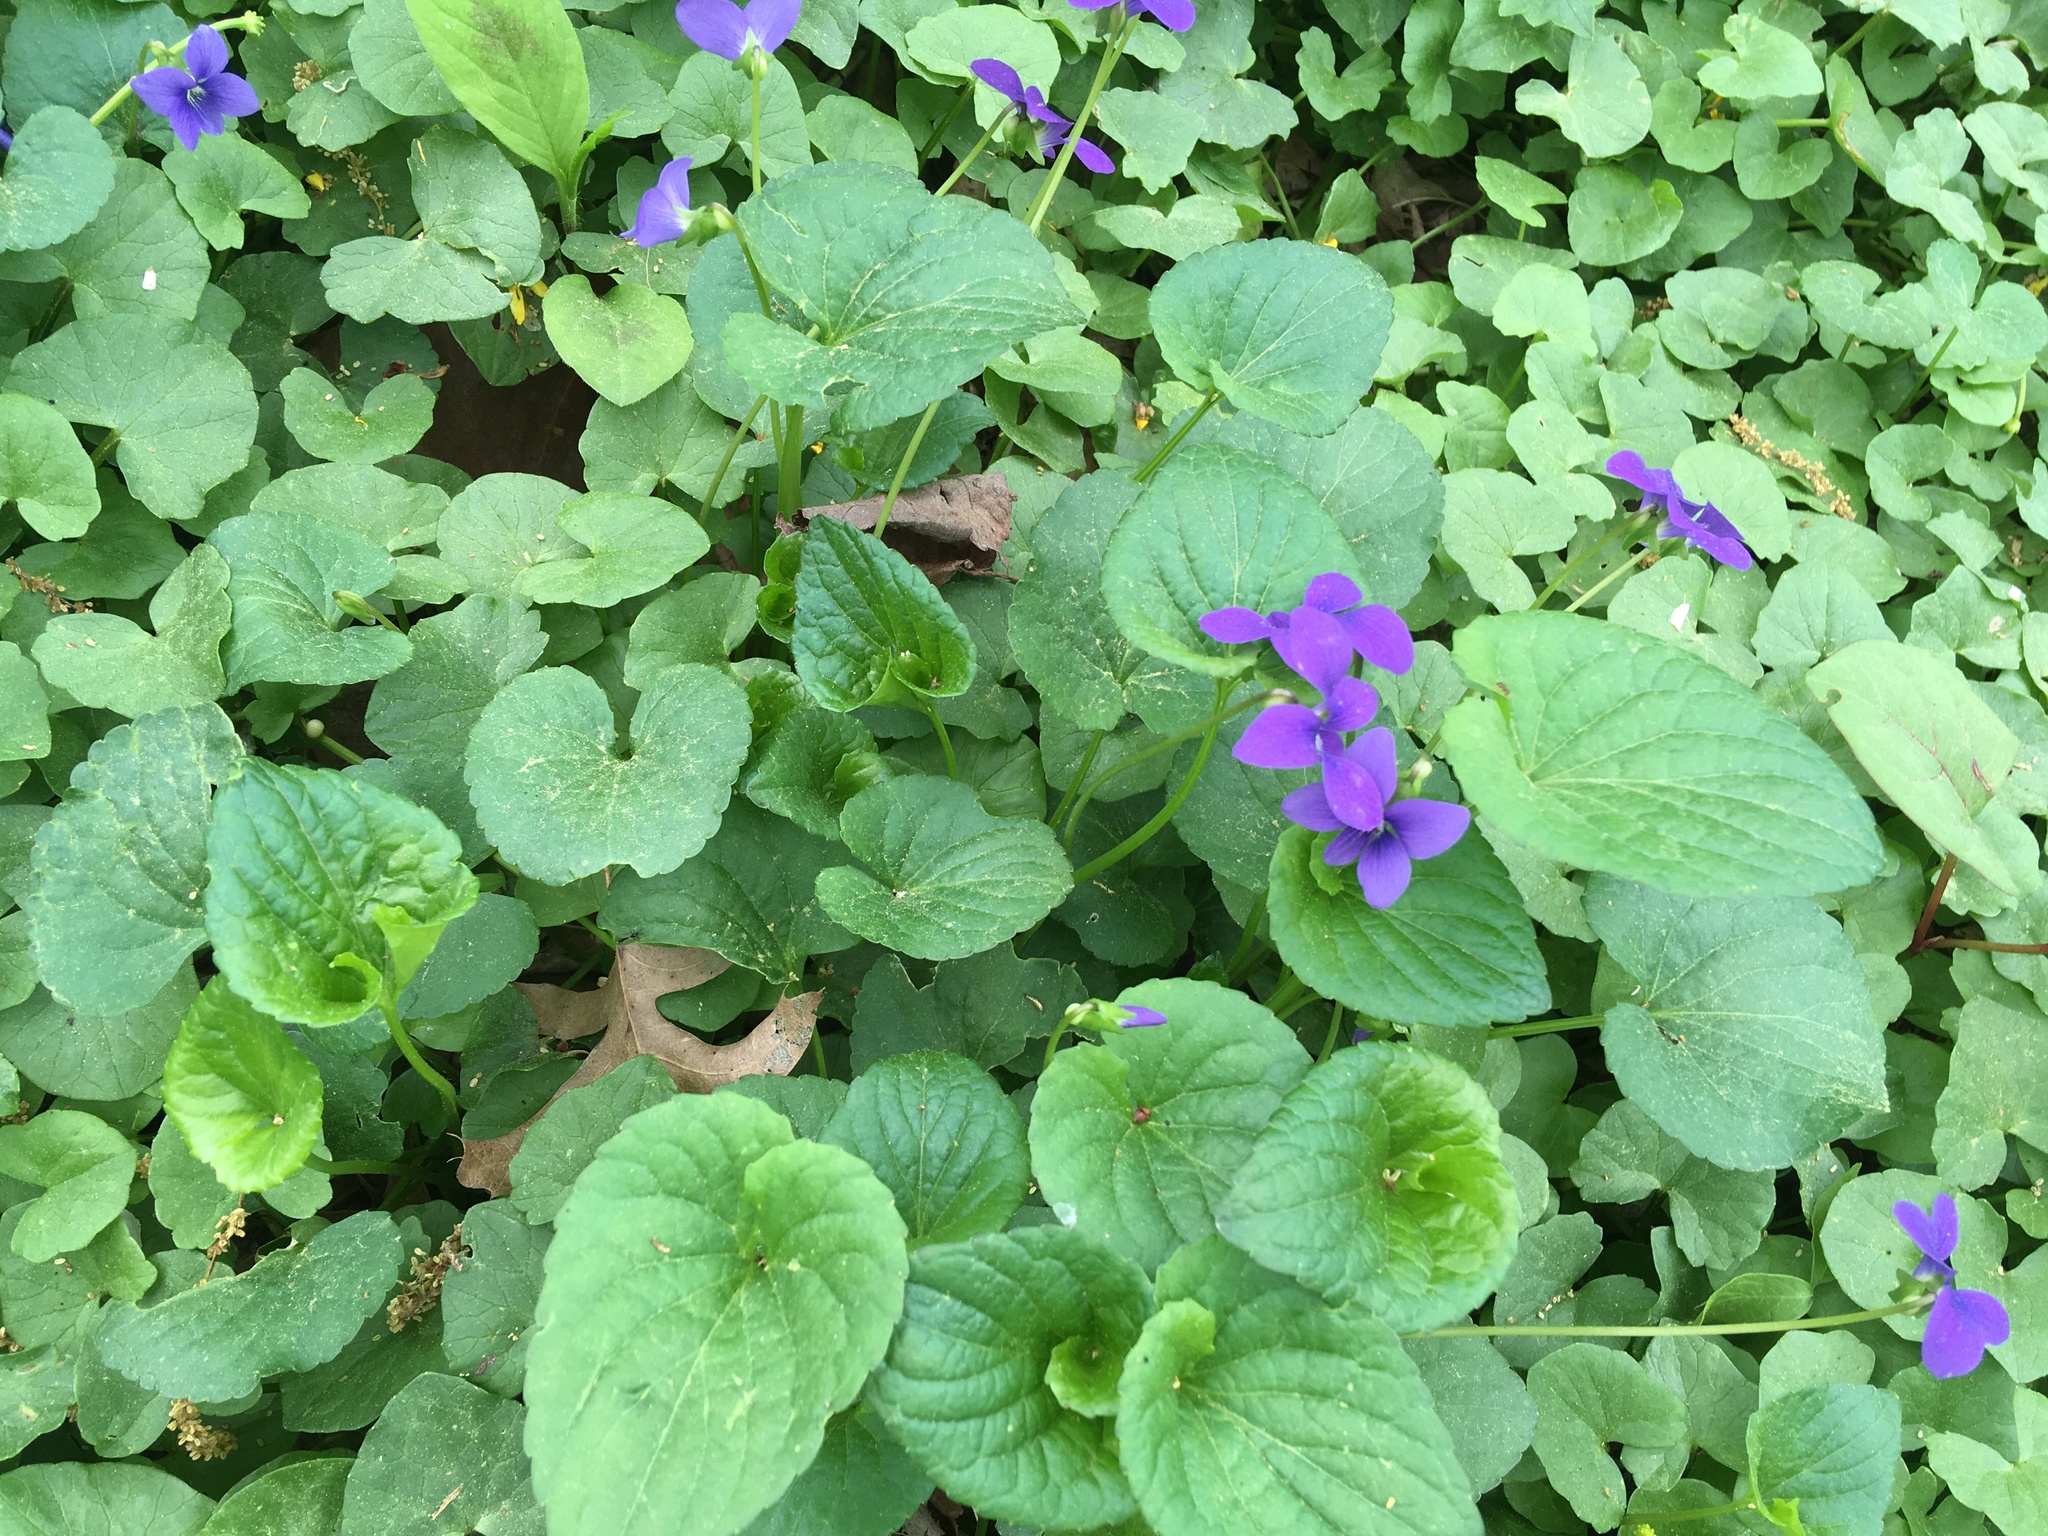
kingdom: Plantae
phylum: Tracheophyta
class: Magnoliopsida
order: Malpighiales
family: Violaceae
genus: Viola
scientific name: Viola sororia
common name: Dooryard violet
